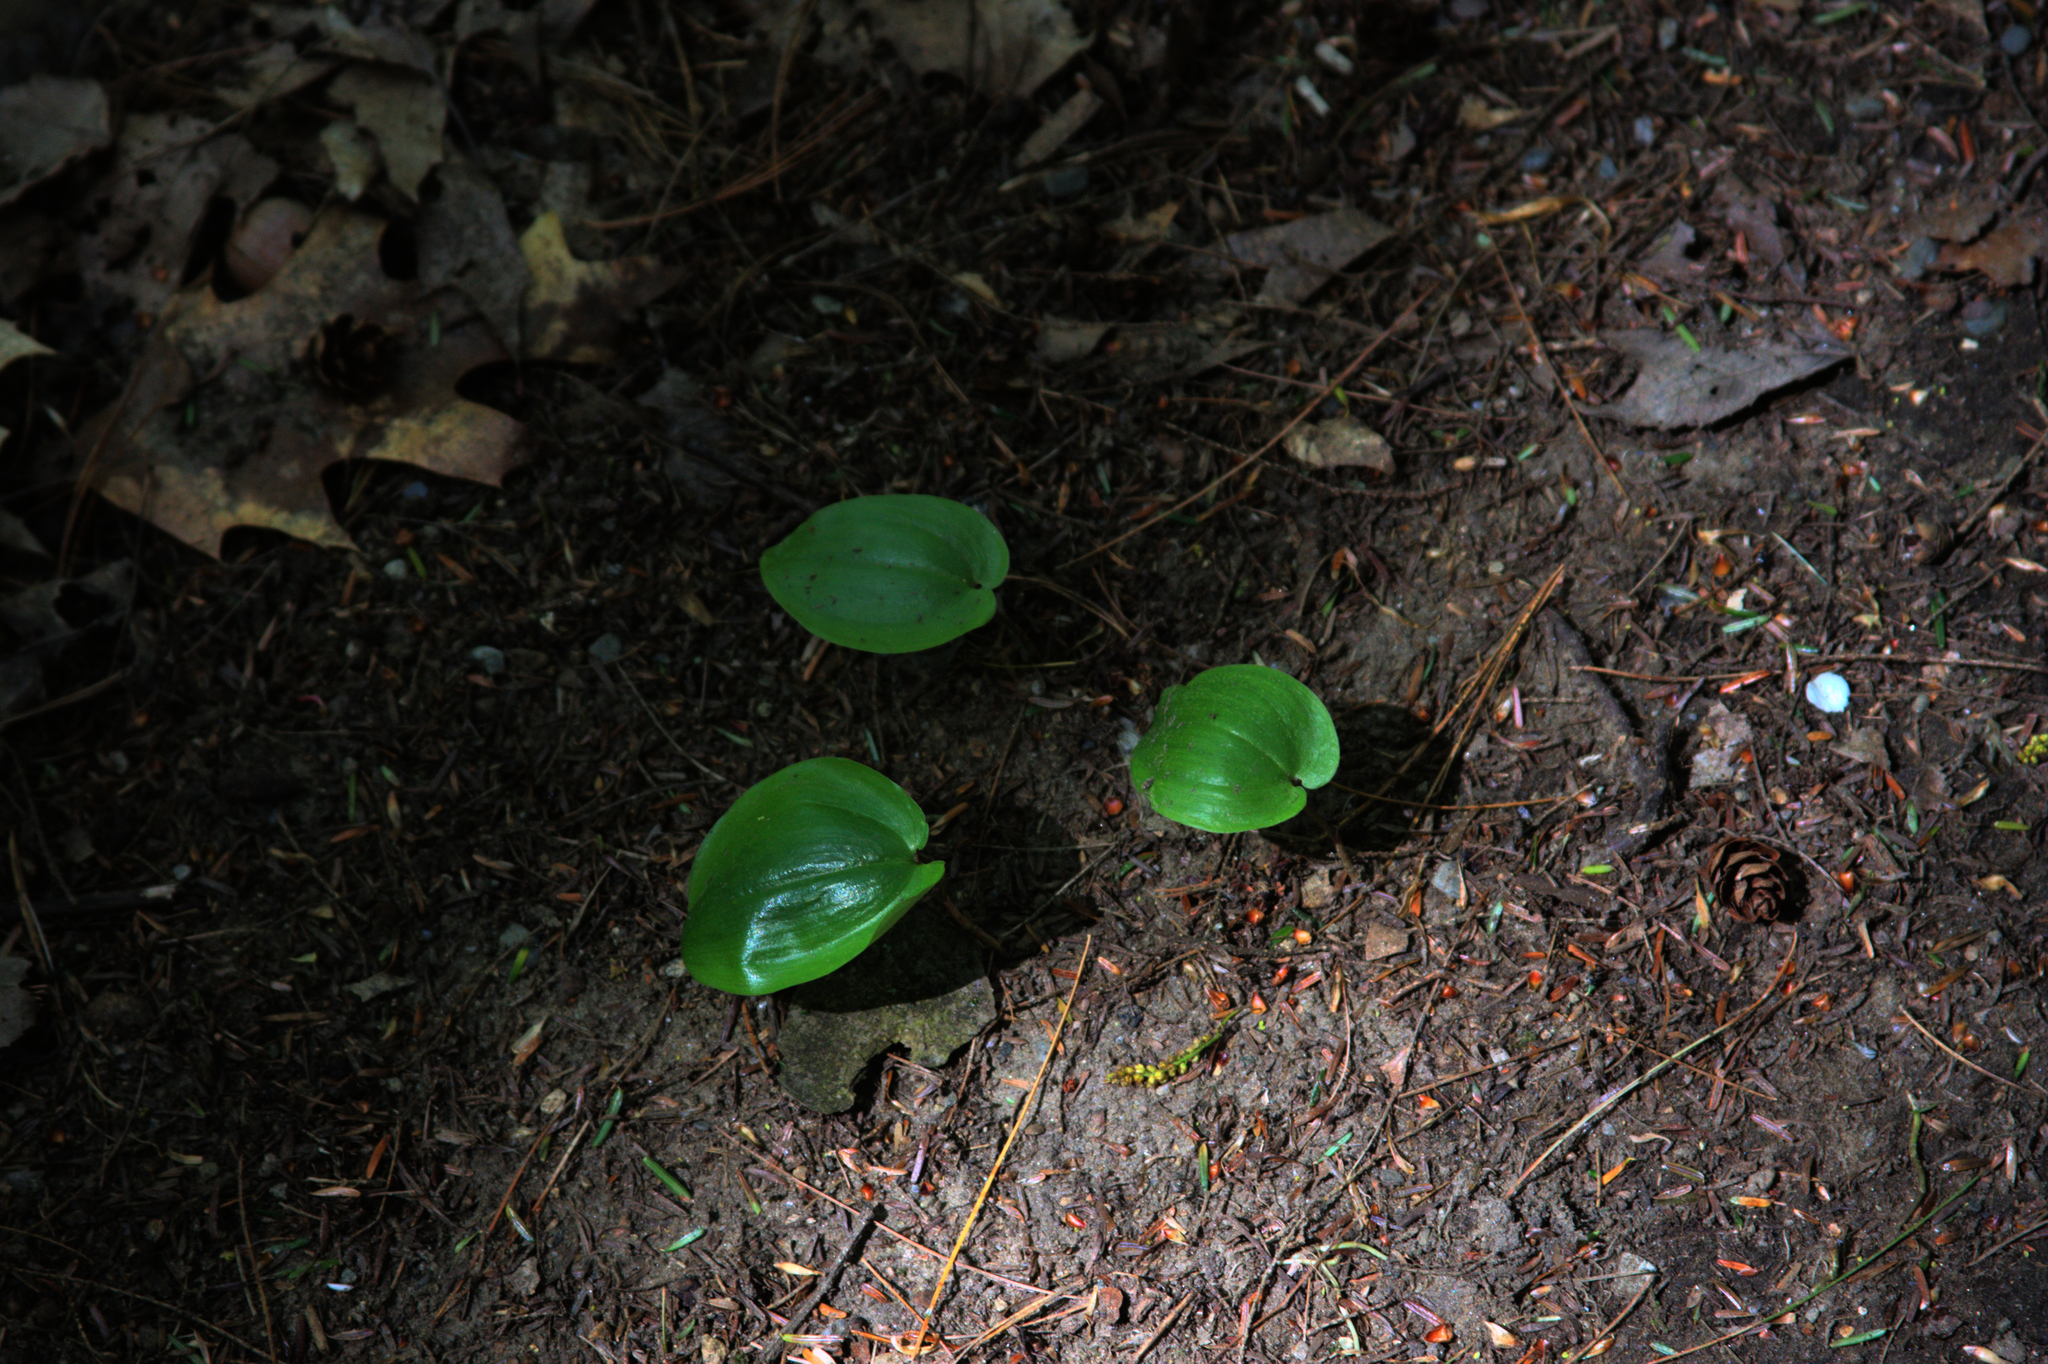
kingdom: Plantae
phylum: Tracheophyta
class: Liliopsida
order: Asparagales
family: Asparagaceae
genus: Maianthemum
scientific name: Maianthemum canadense
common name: False lily-of-the-valley
